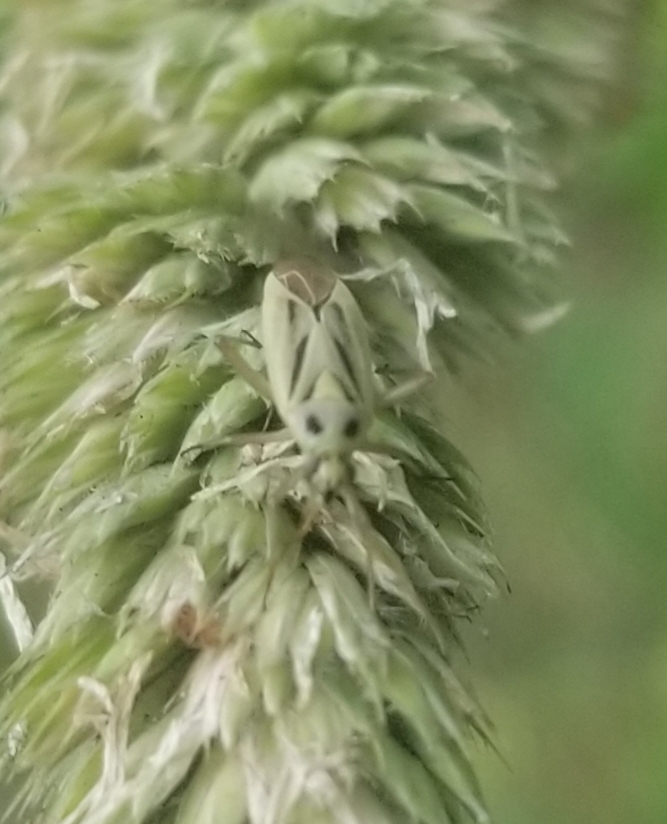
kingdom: Animalia
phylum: Arthropoda
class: Insecta
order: Hemiptera
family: Miridae
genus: Stenotus
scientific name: Stenotus binotatus
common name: Plant bug
